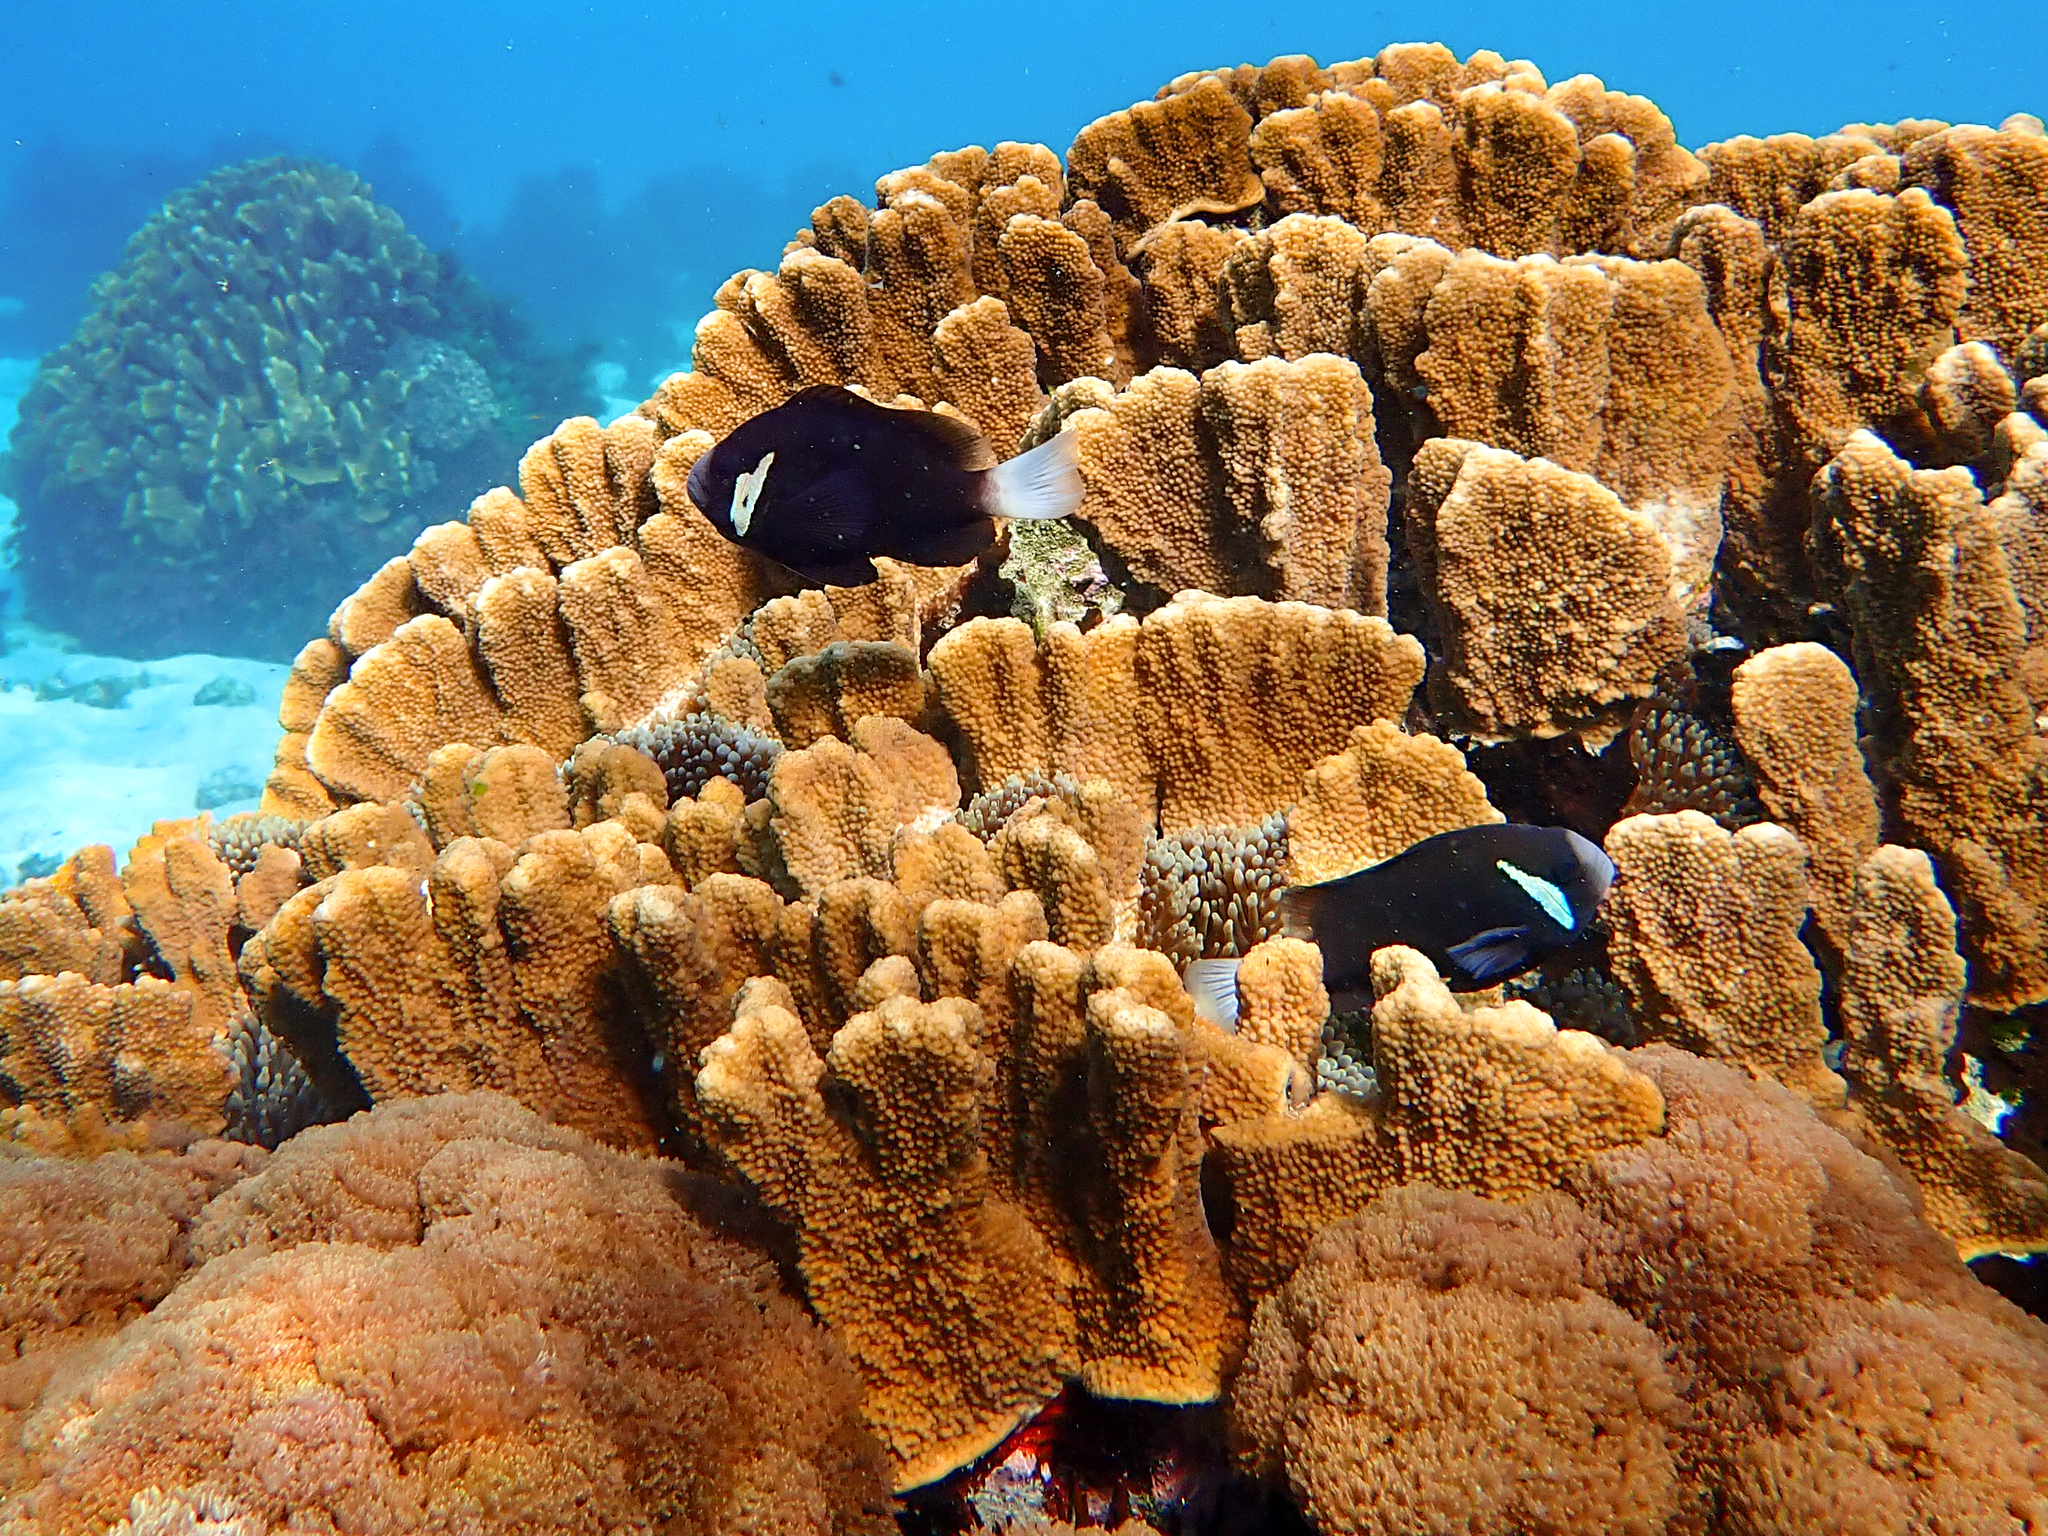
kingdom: Animalia
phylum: Chordata
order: Perciformes
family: Pomacentridae
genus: Amphiprion
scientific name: Amphiprion mccullochi
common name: Mcculloch's anemonefish
